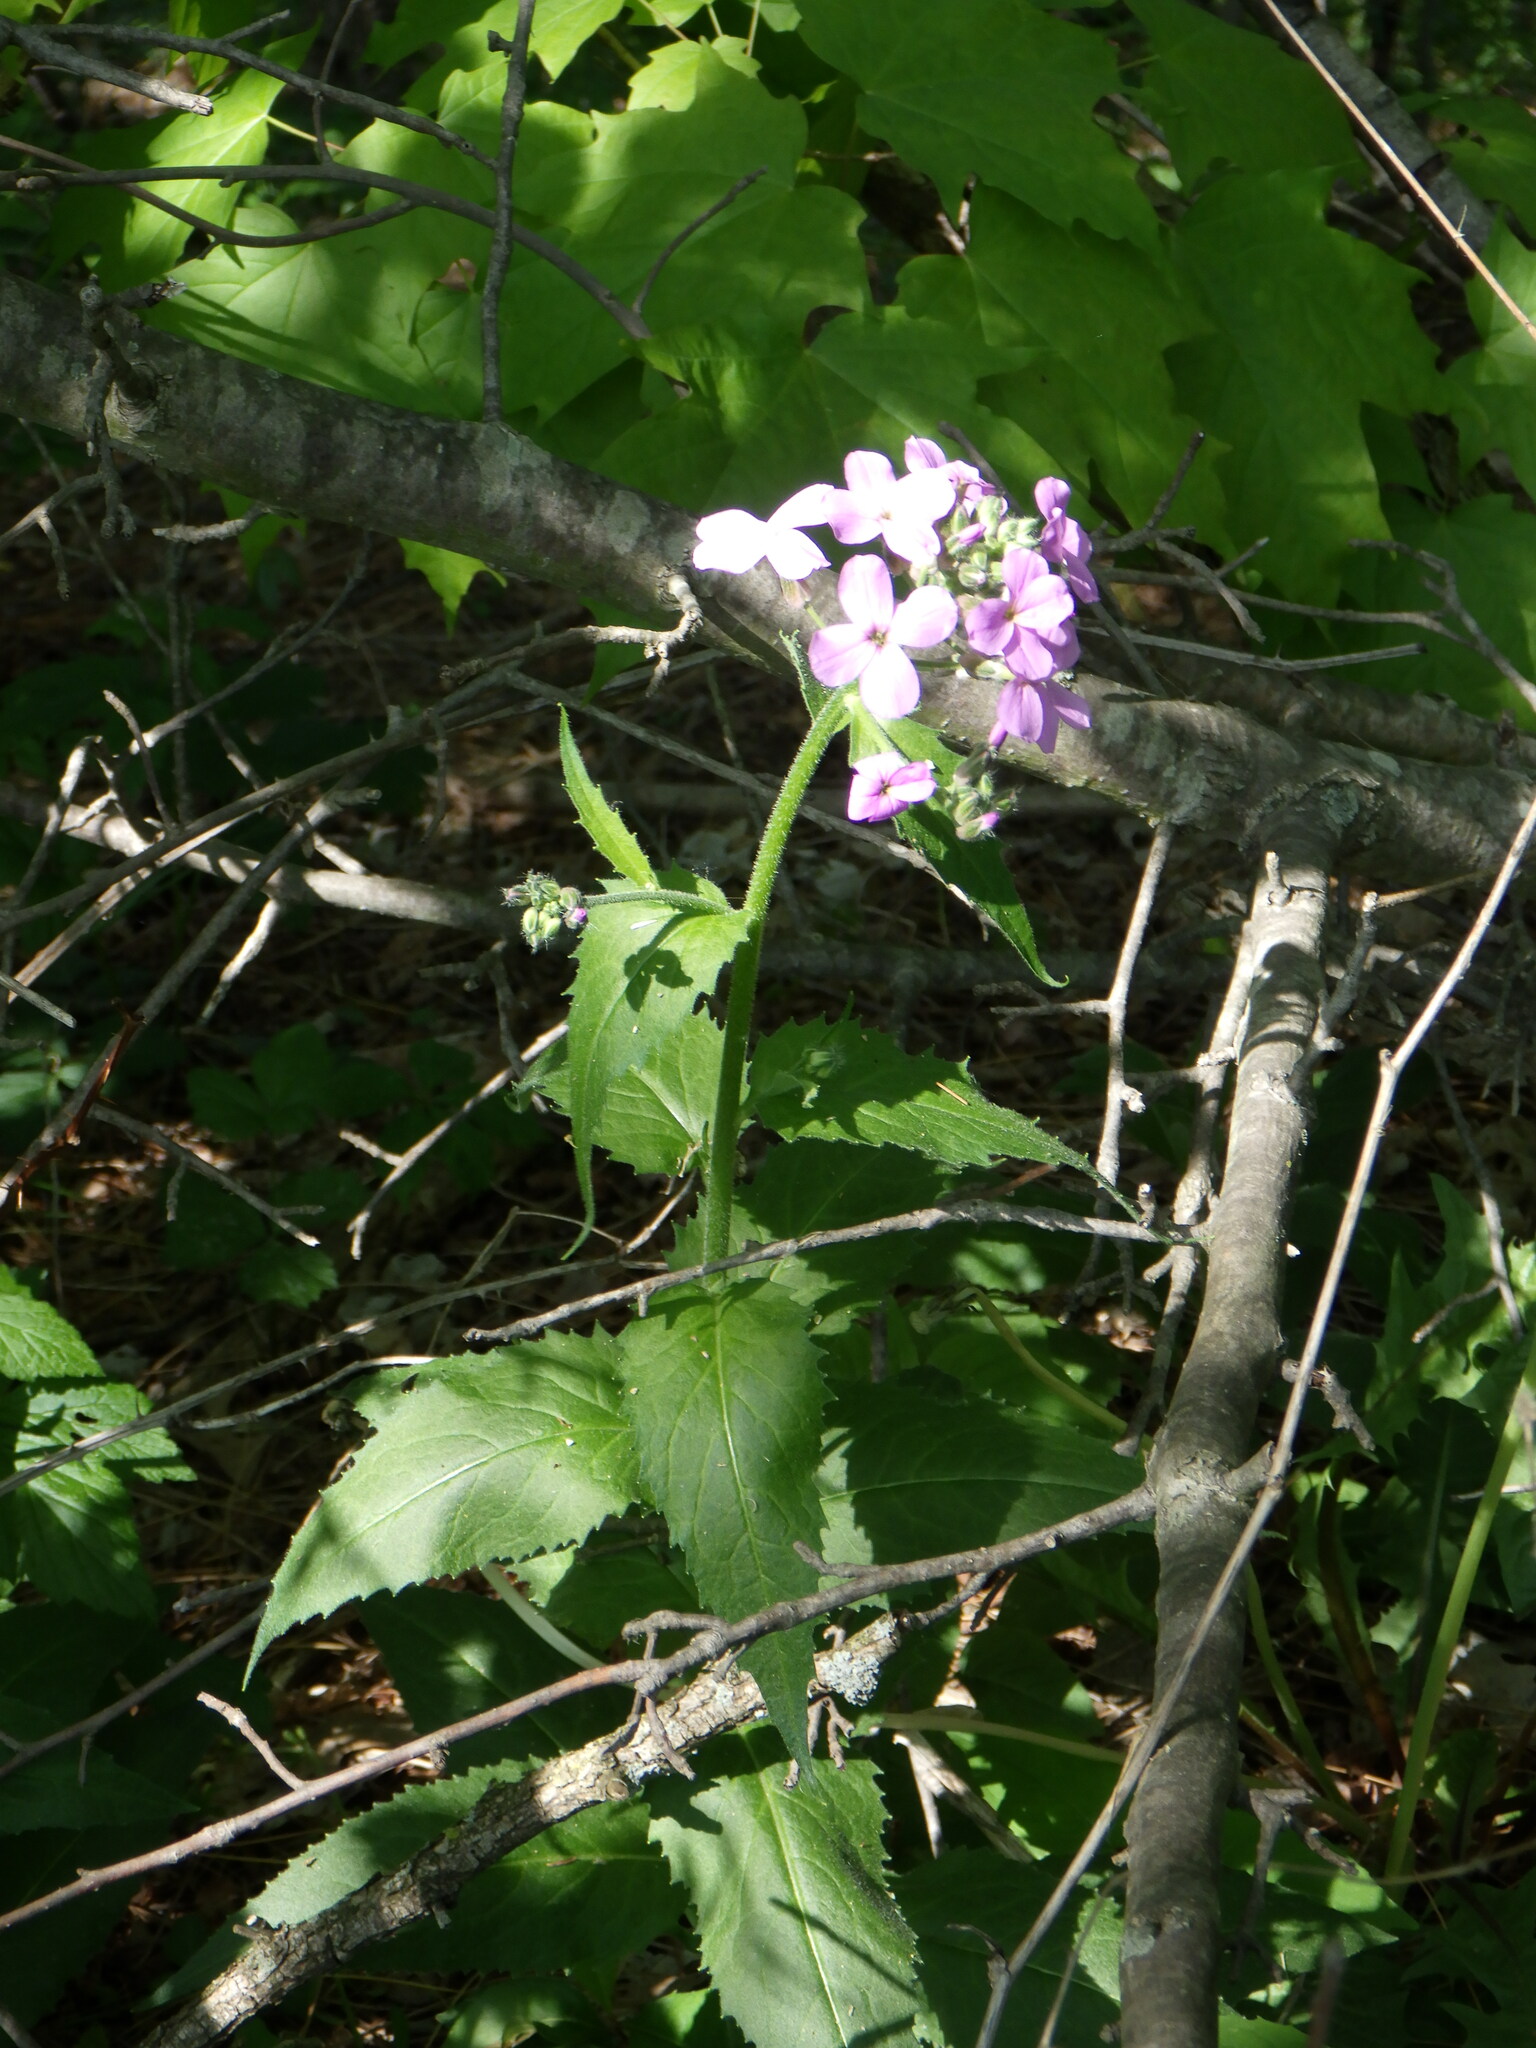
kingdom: Plantae
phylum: Tracheophyta
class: Magnoliopsida
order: Brassicales
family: Brassicaceae
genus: Hesperis
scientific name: Hesperis matronalis
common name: Dame's-violet
